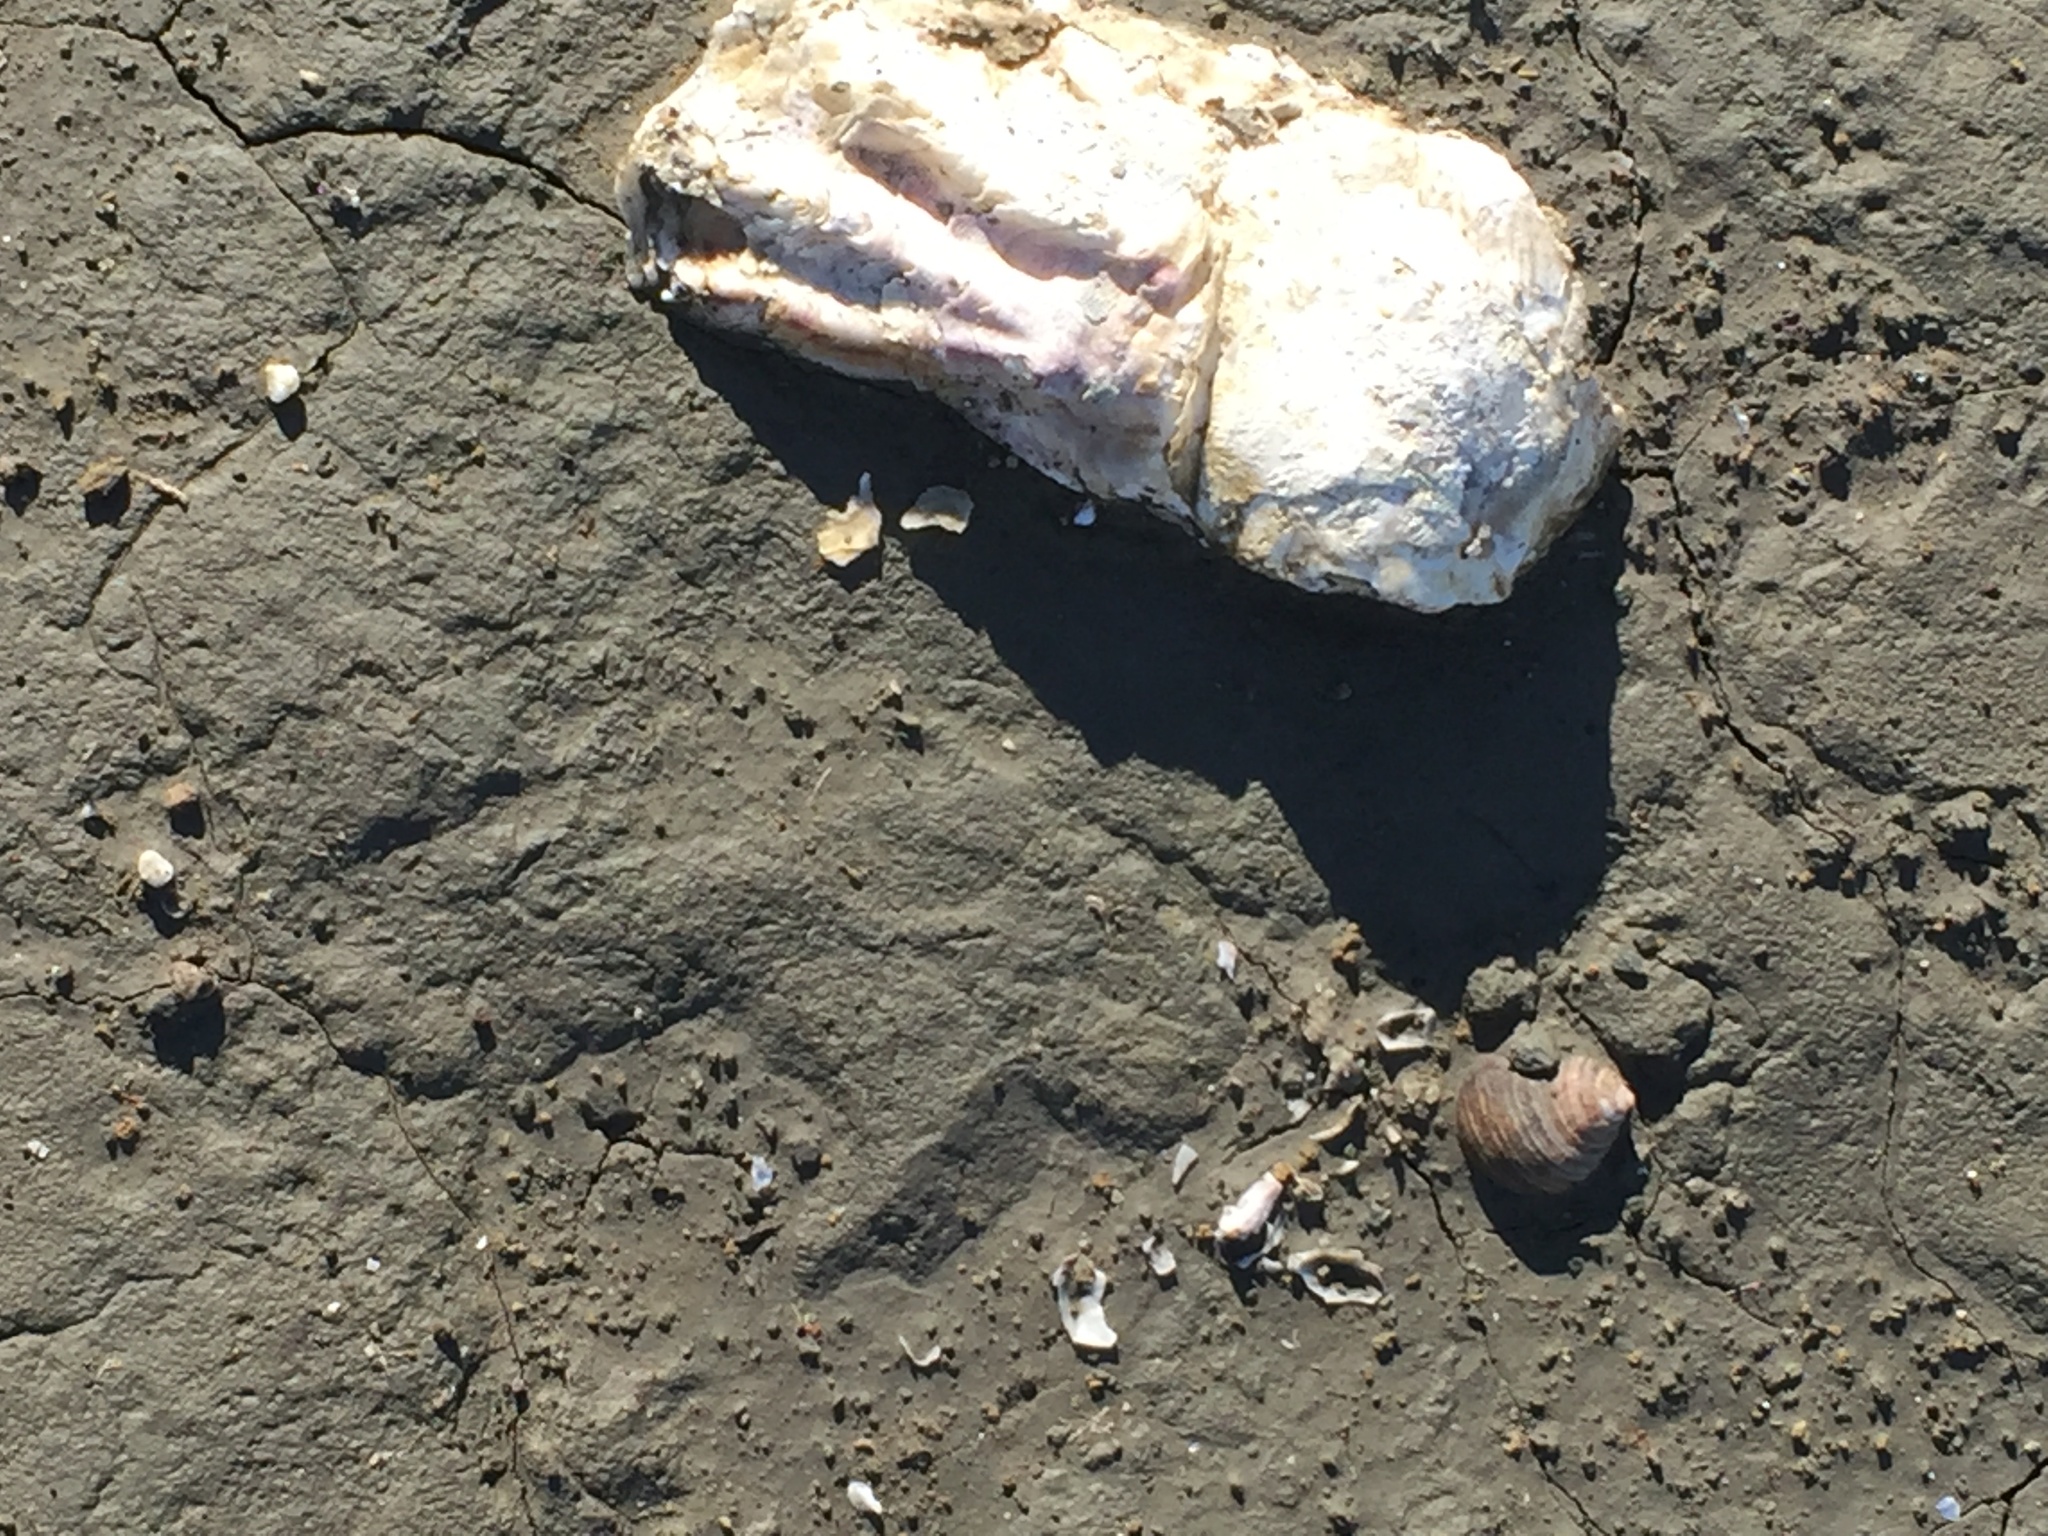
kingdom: Animalia
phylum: Mollusca
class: Bivalvia
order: Ostreida
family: Ostreidae
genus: Magallana
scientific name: Magallana gigas
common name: Pacific oyster
